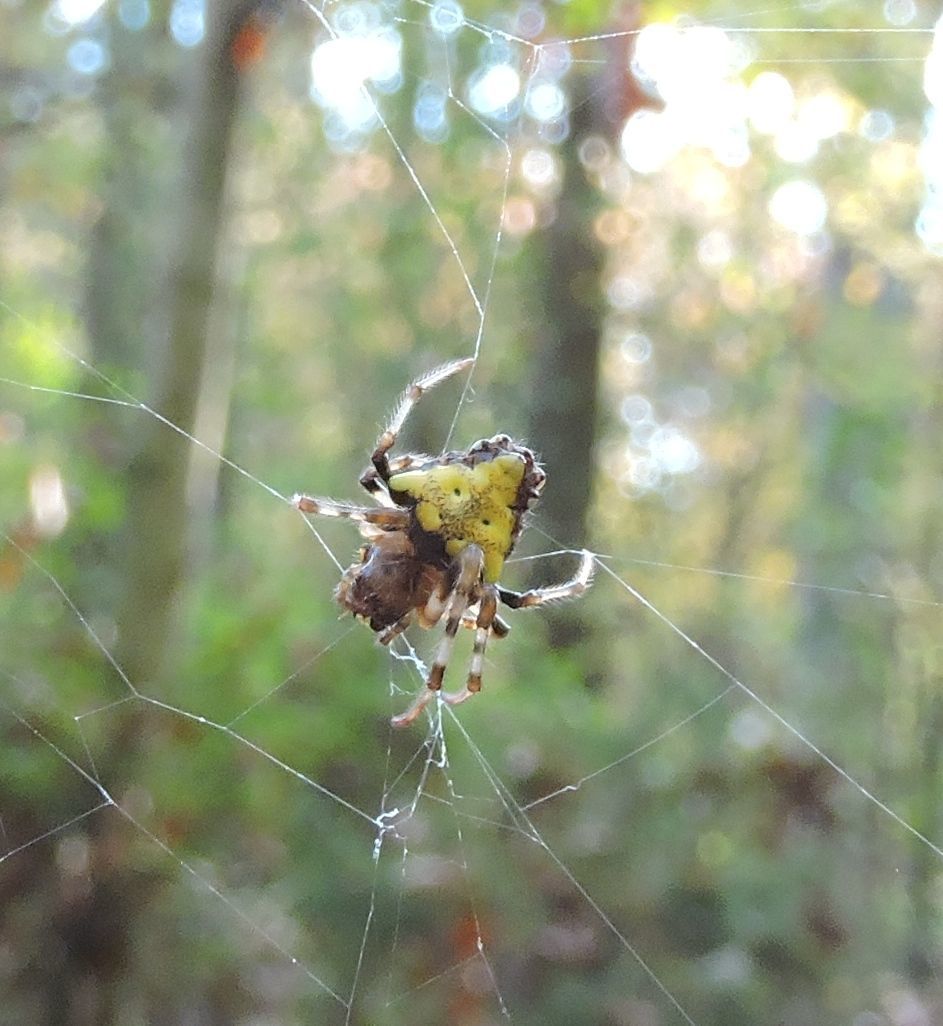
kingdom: Animalia
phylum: Arthropoda
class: Arachnida
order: Araneae
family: Araneidae
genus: Verrucosa
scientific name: Verrucosa arenata
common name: Orb weavers
